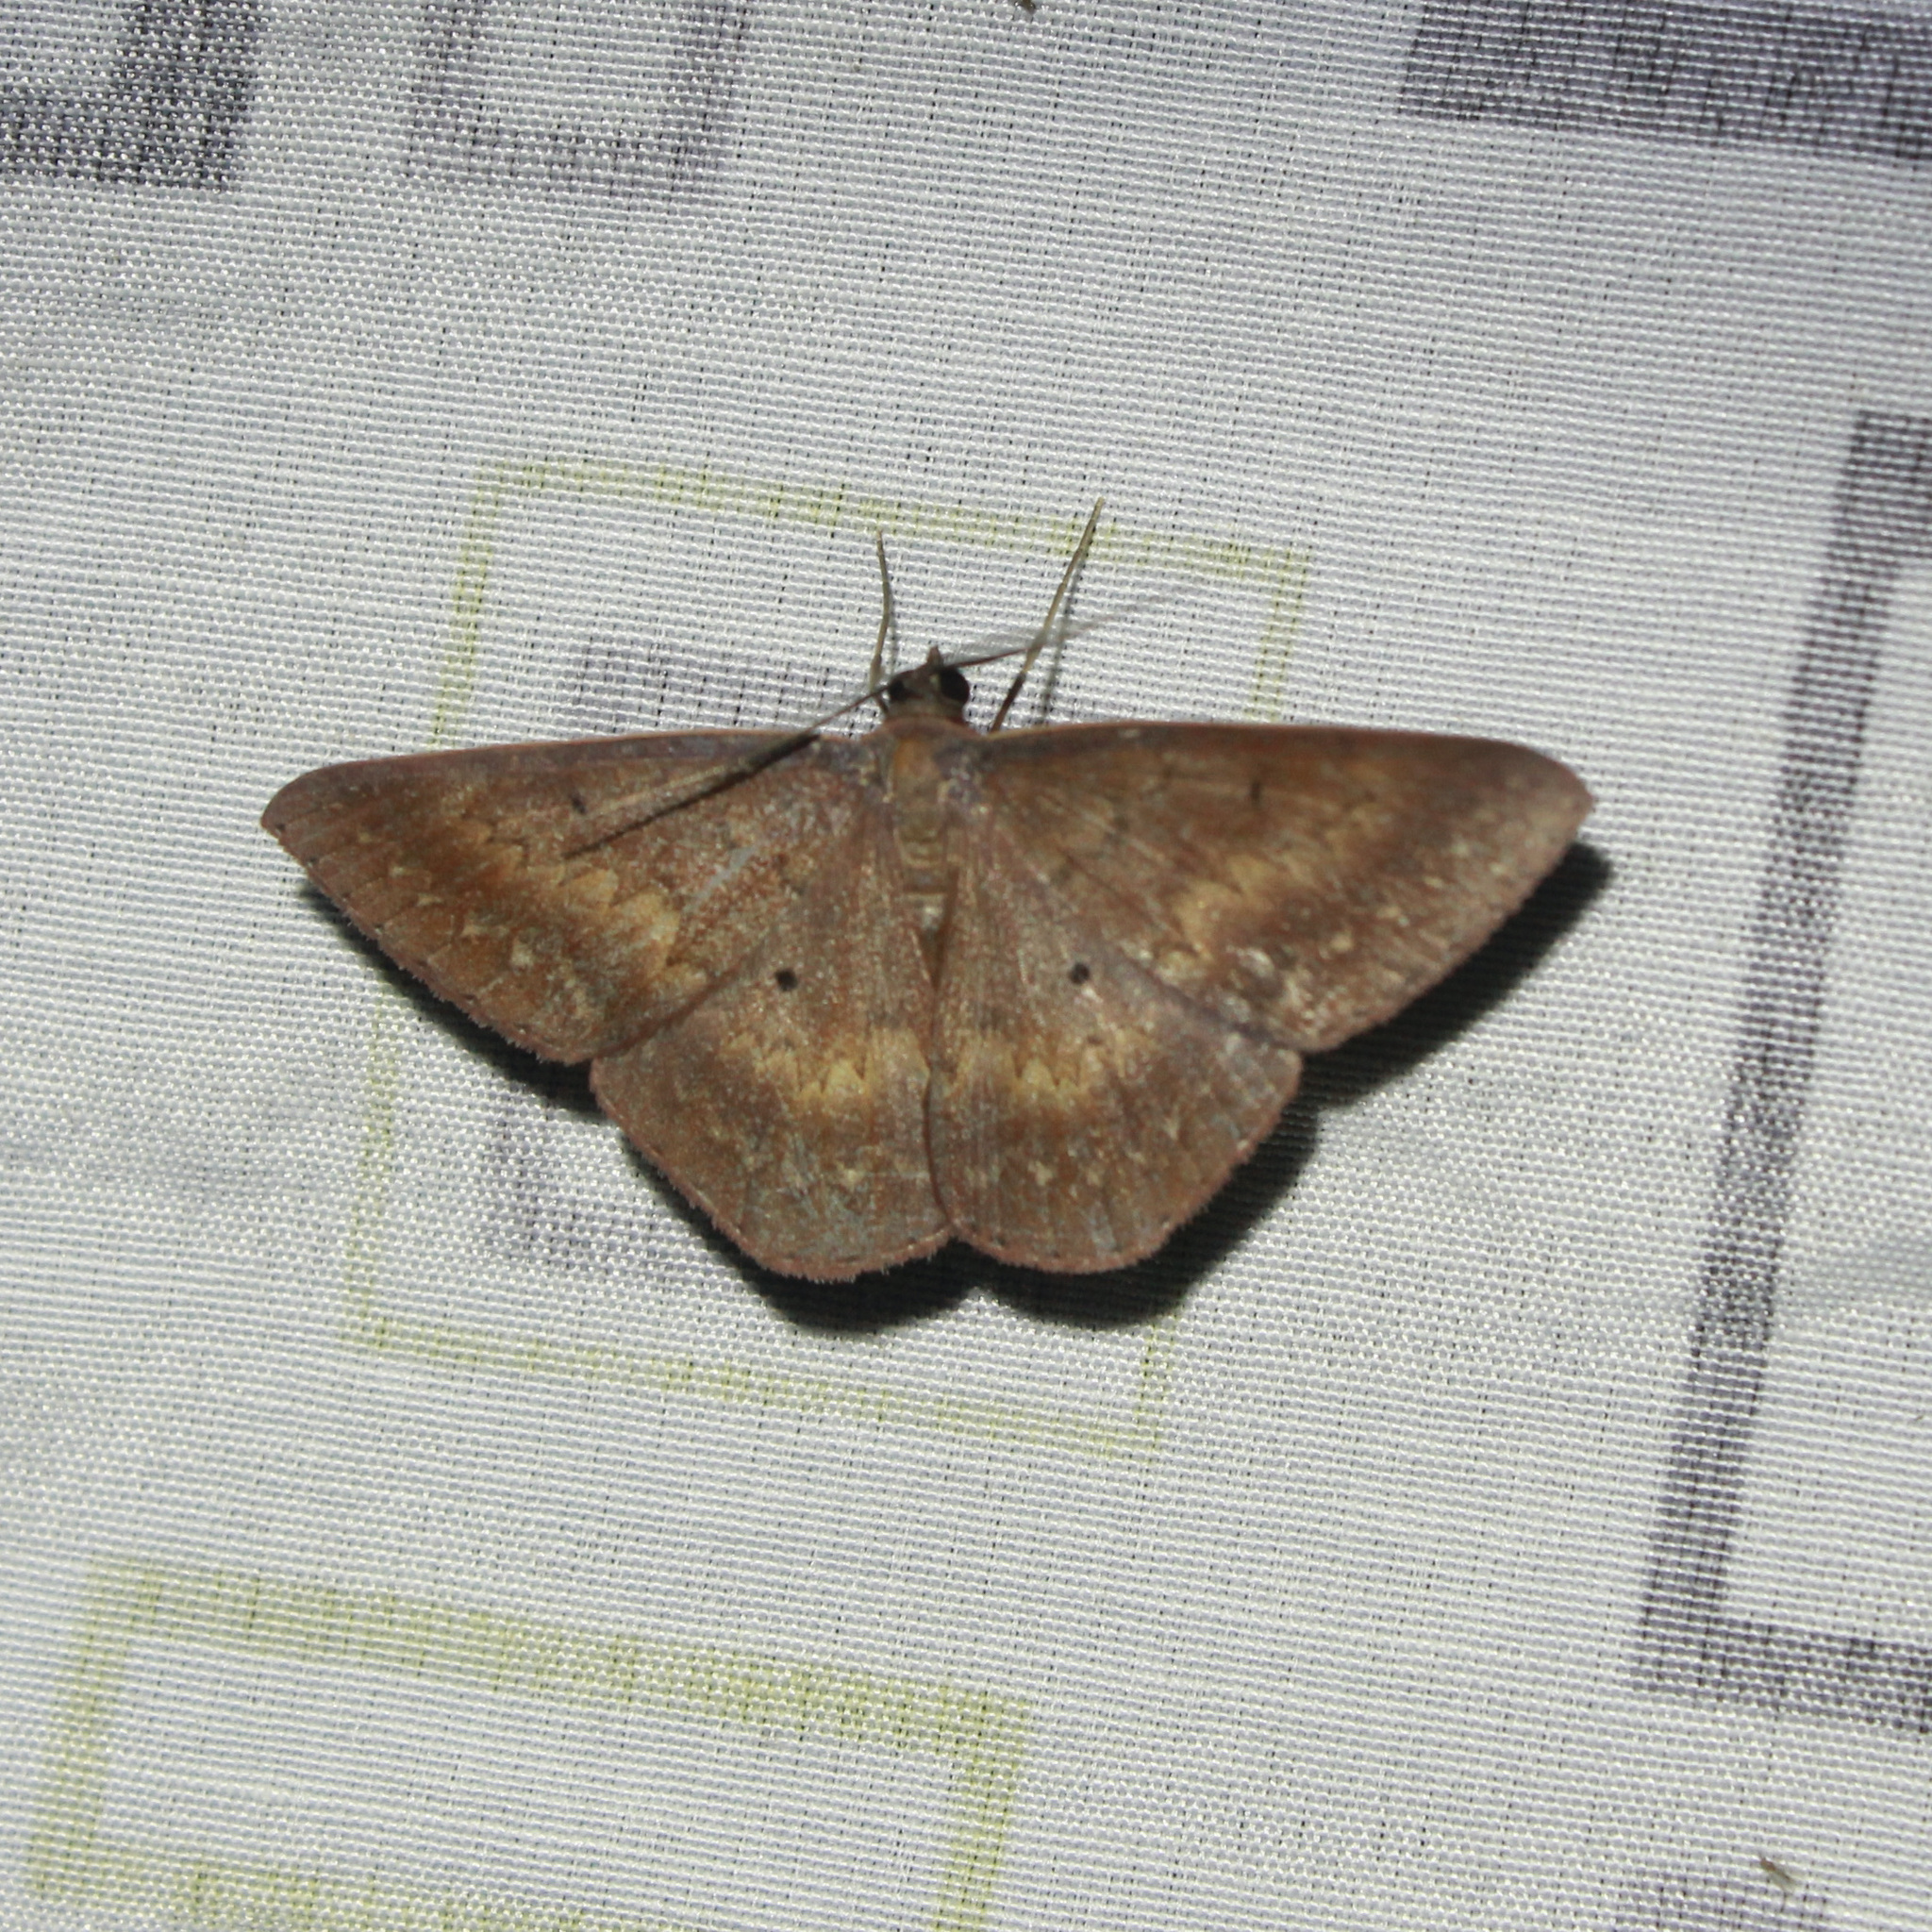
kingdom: Animalia
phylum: Arthropoda
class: Insecta
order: Lepidoptera
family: Geometridae
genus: Ophiogramma
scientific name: Ophiogramma maronii
